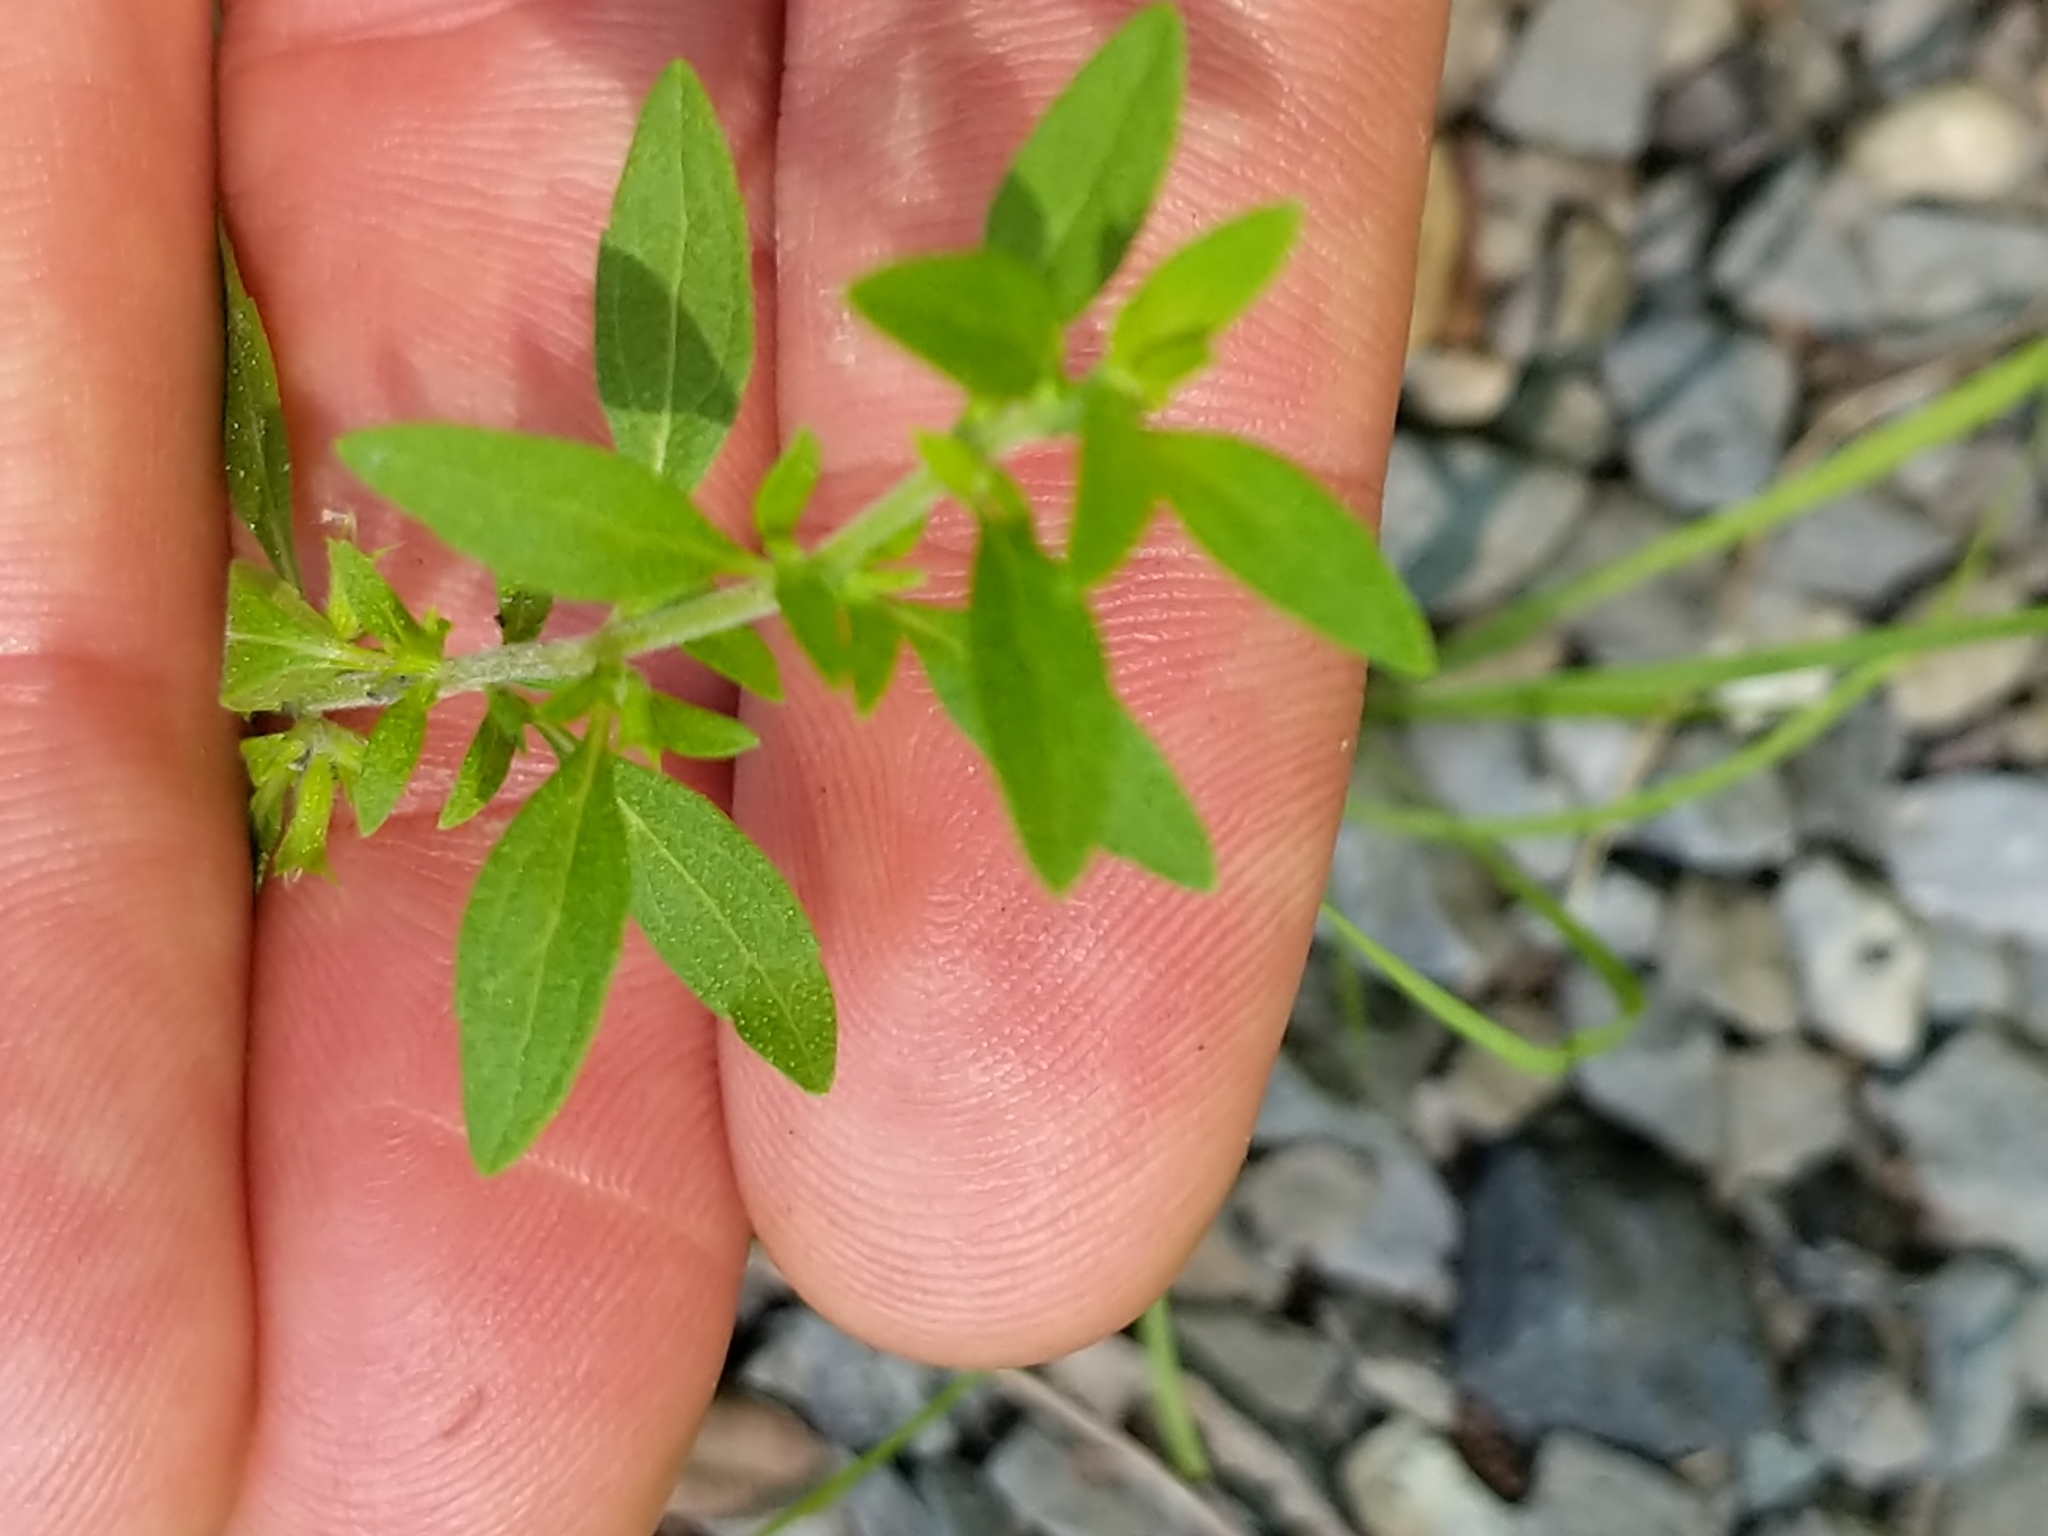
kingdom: Plantae
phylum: Tracheophyta
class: Magnoliopsida
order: Lamiales
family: Lamiaceae
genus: Hedeoma
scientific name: Hedeoma pulegioides
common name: American false pennyroyal
